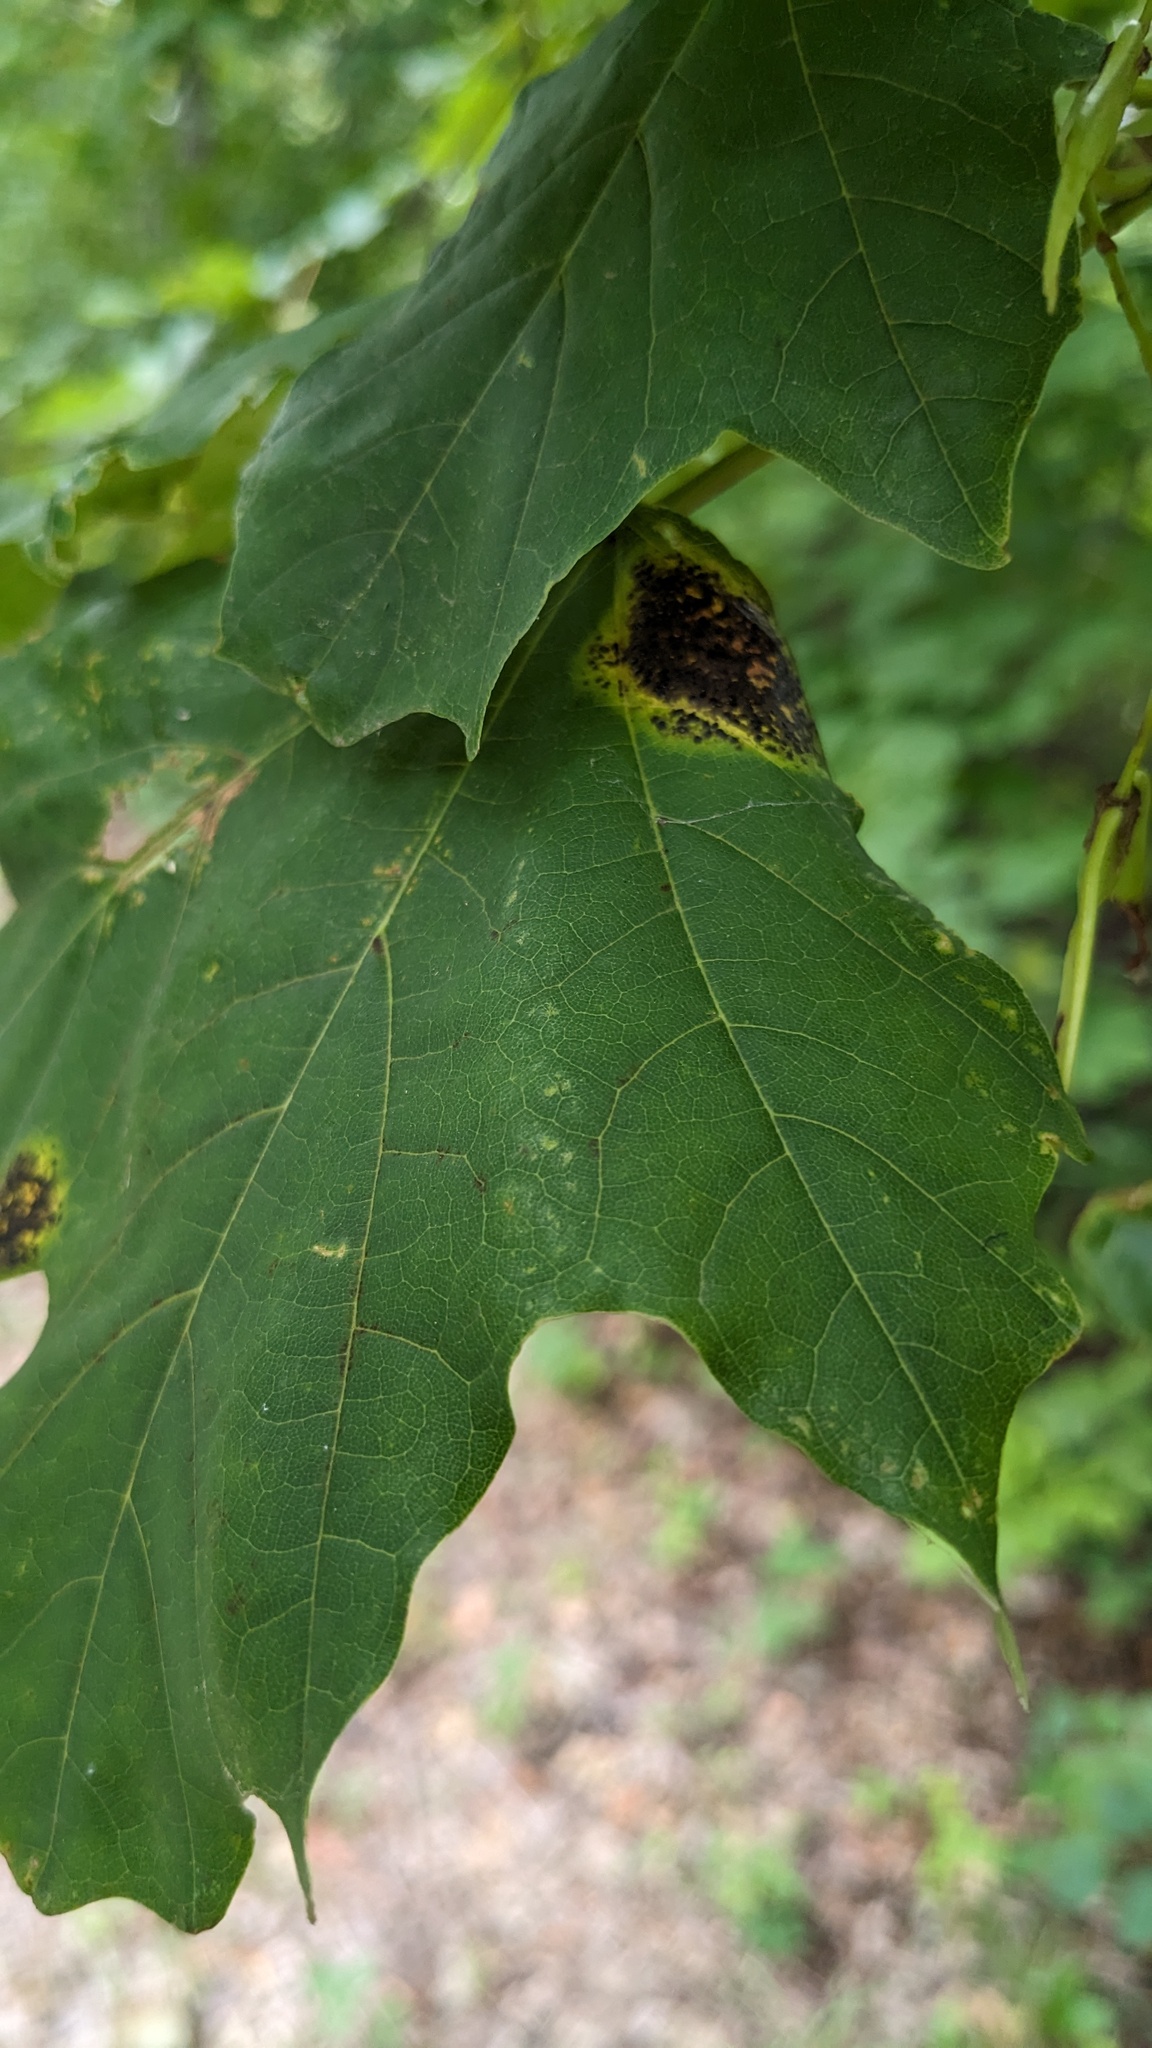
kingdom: Fungi
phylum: Ascomycota
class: Leotiomycetes
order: Rhytismatales
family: Rhytismataceae
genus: Rhytisma
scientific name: Rhytisma acerinum
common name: European tar spot
